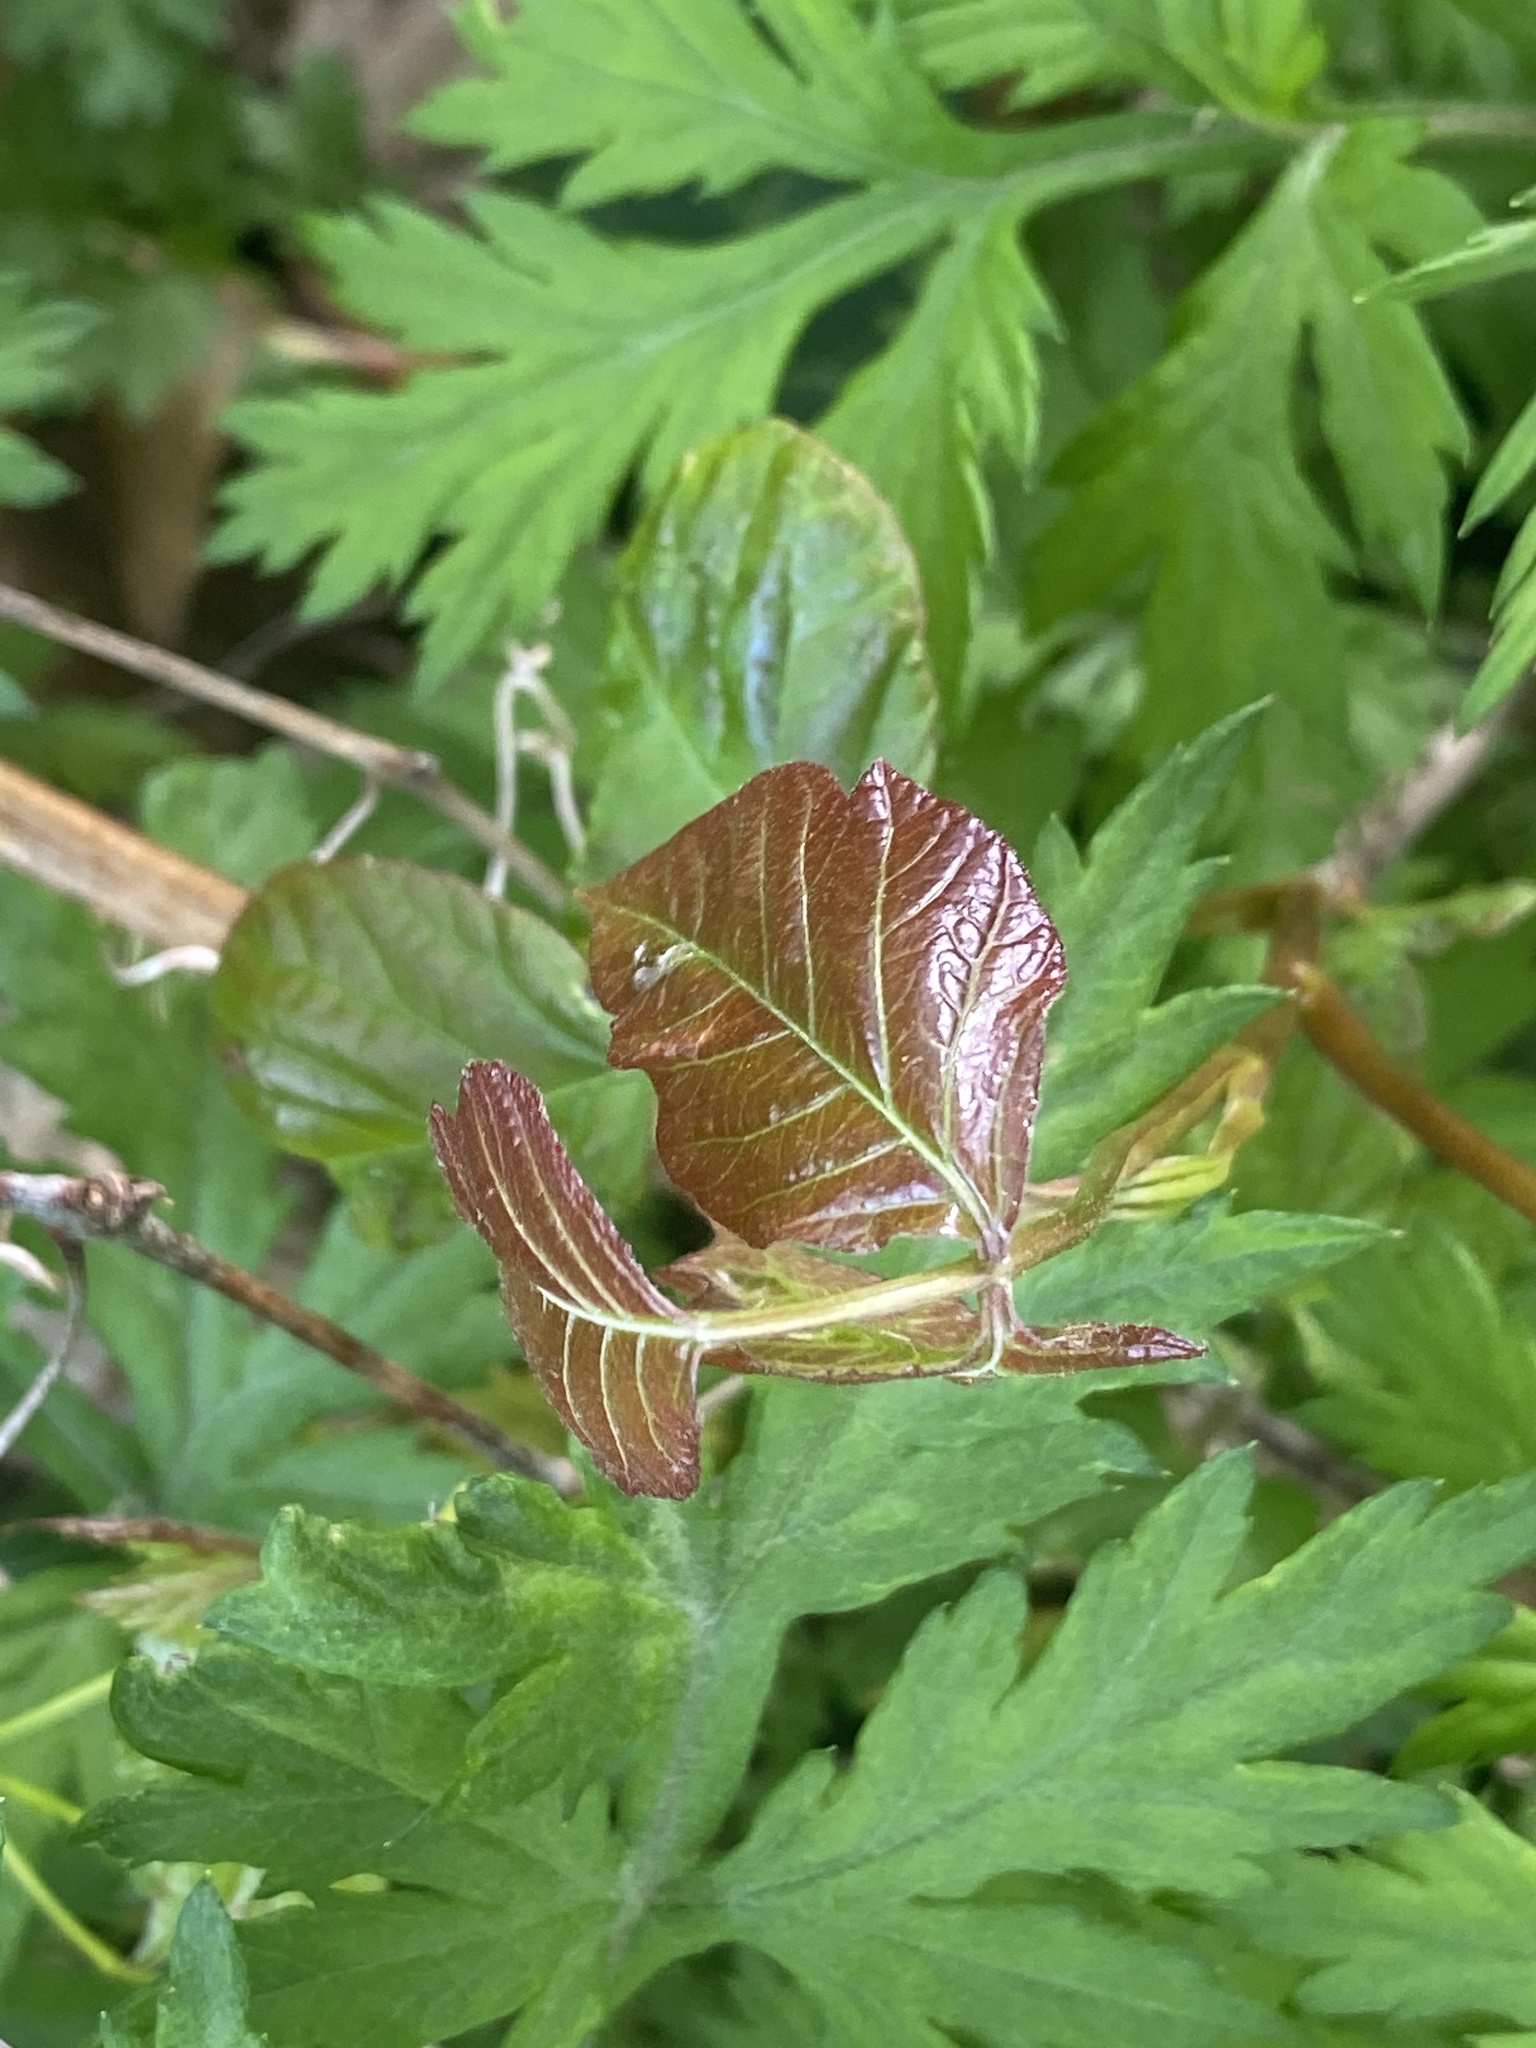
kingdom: Plantae
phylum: Tracheophyta
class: Magnoliopsida
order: Sapindales
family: Anacardiaceae
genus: Toxicodendron
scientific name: Toxicodendron radicans
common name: Poison ivy
